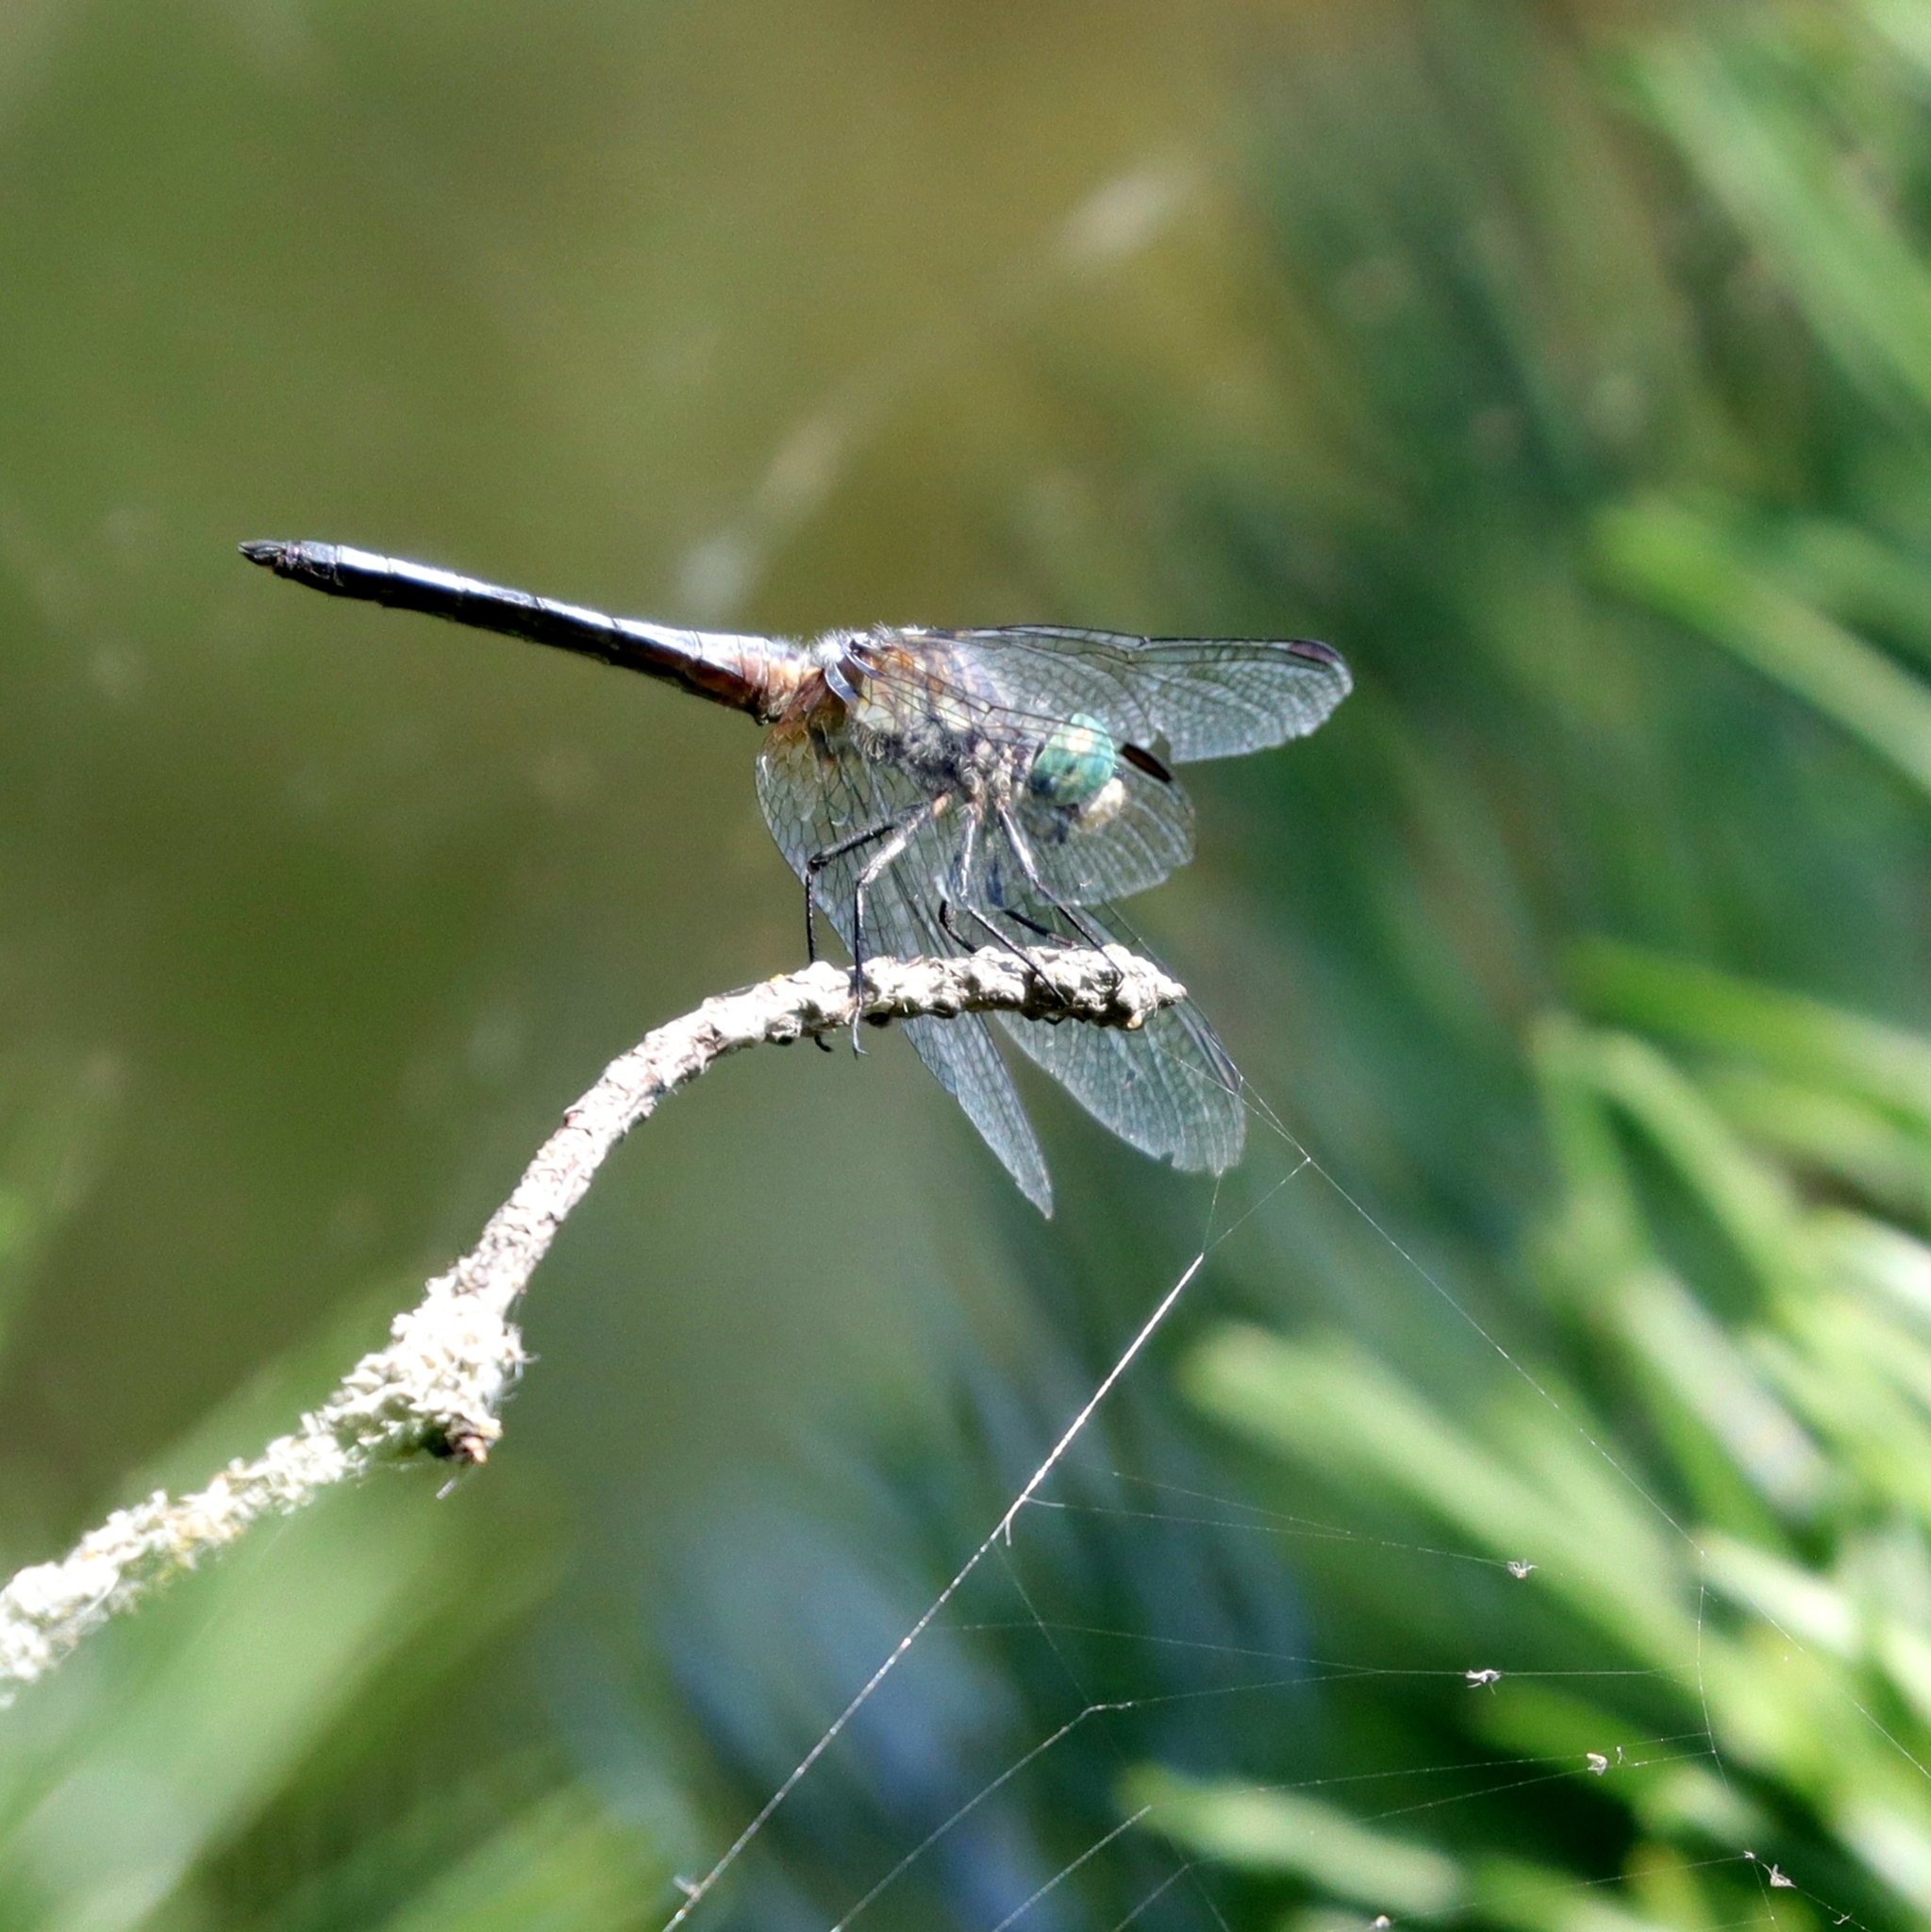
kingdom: Animalia
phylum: Arthropoda
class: Insecta
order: Odonata
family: Libellulidae
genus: Pachydiplax
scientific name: Pachydiplax longipennis
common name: Blue dasher
